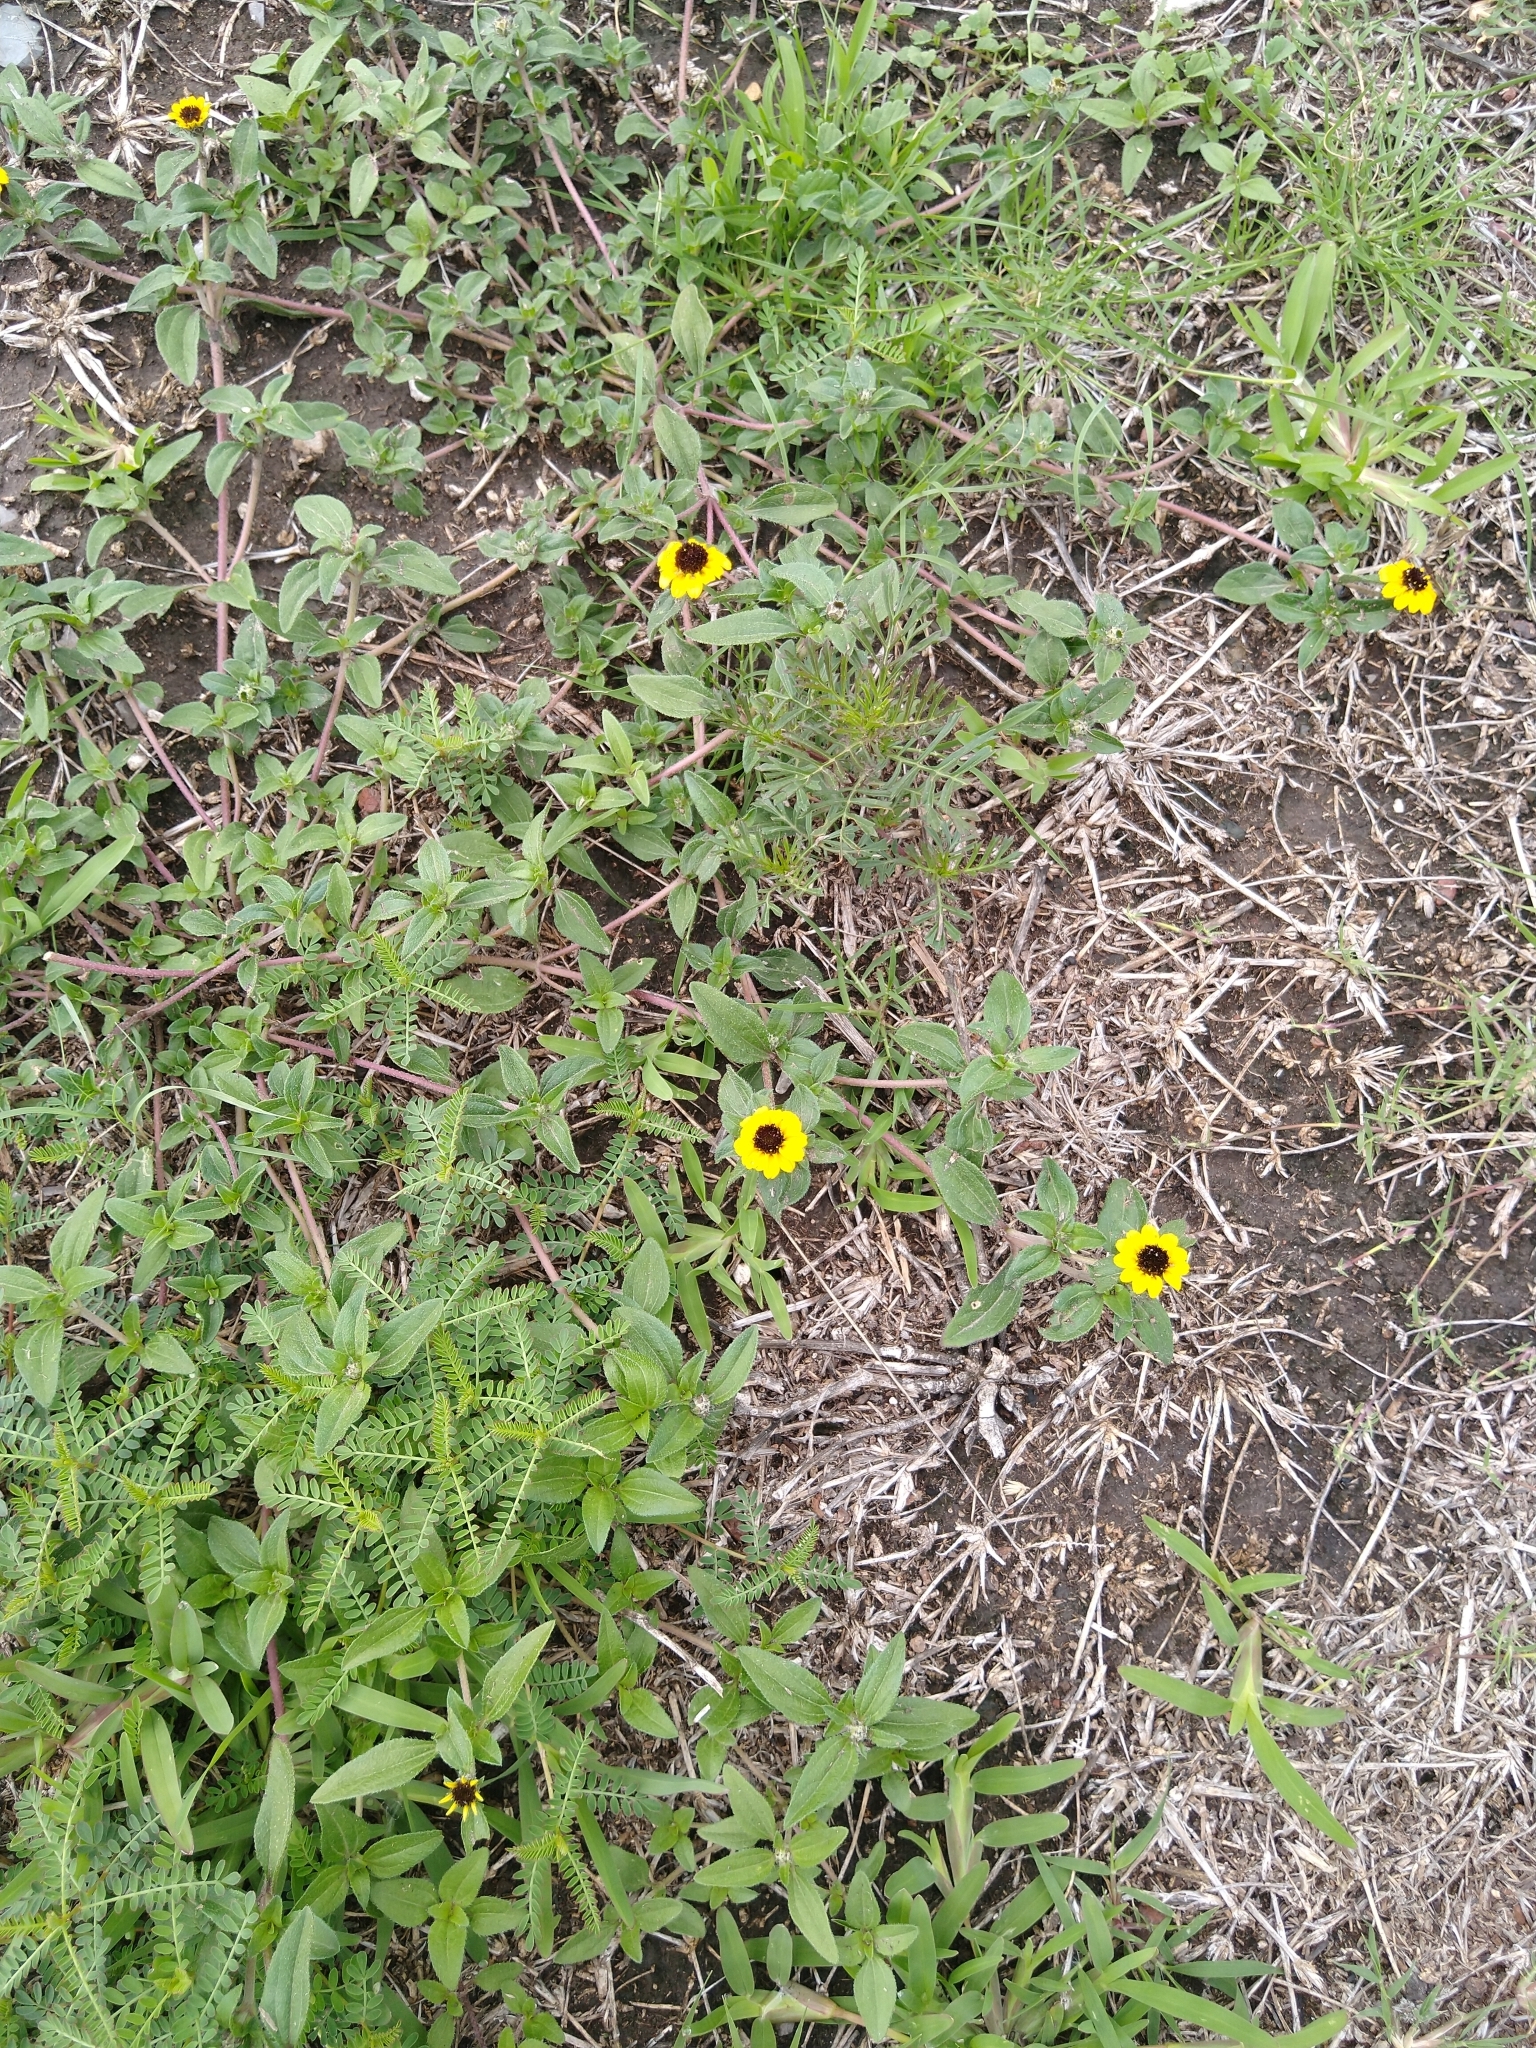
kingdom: Plantae
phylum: Tracheophyta
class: Magnoliopsida
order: Asterales
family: Asteraceae
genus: Sanvitalia
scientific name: Sanvitalia procumbens
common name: Mexican creeping zinnia
